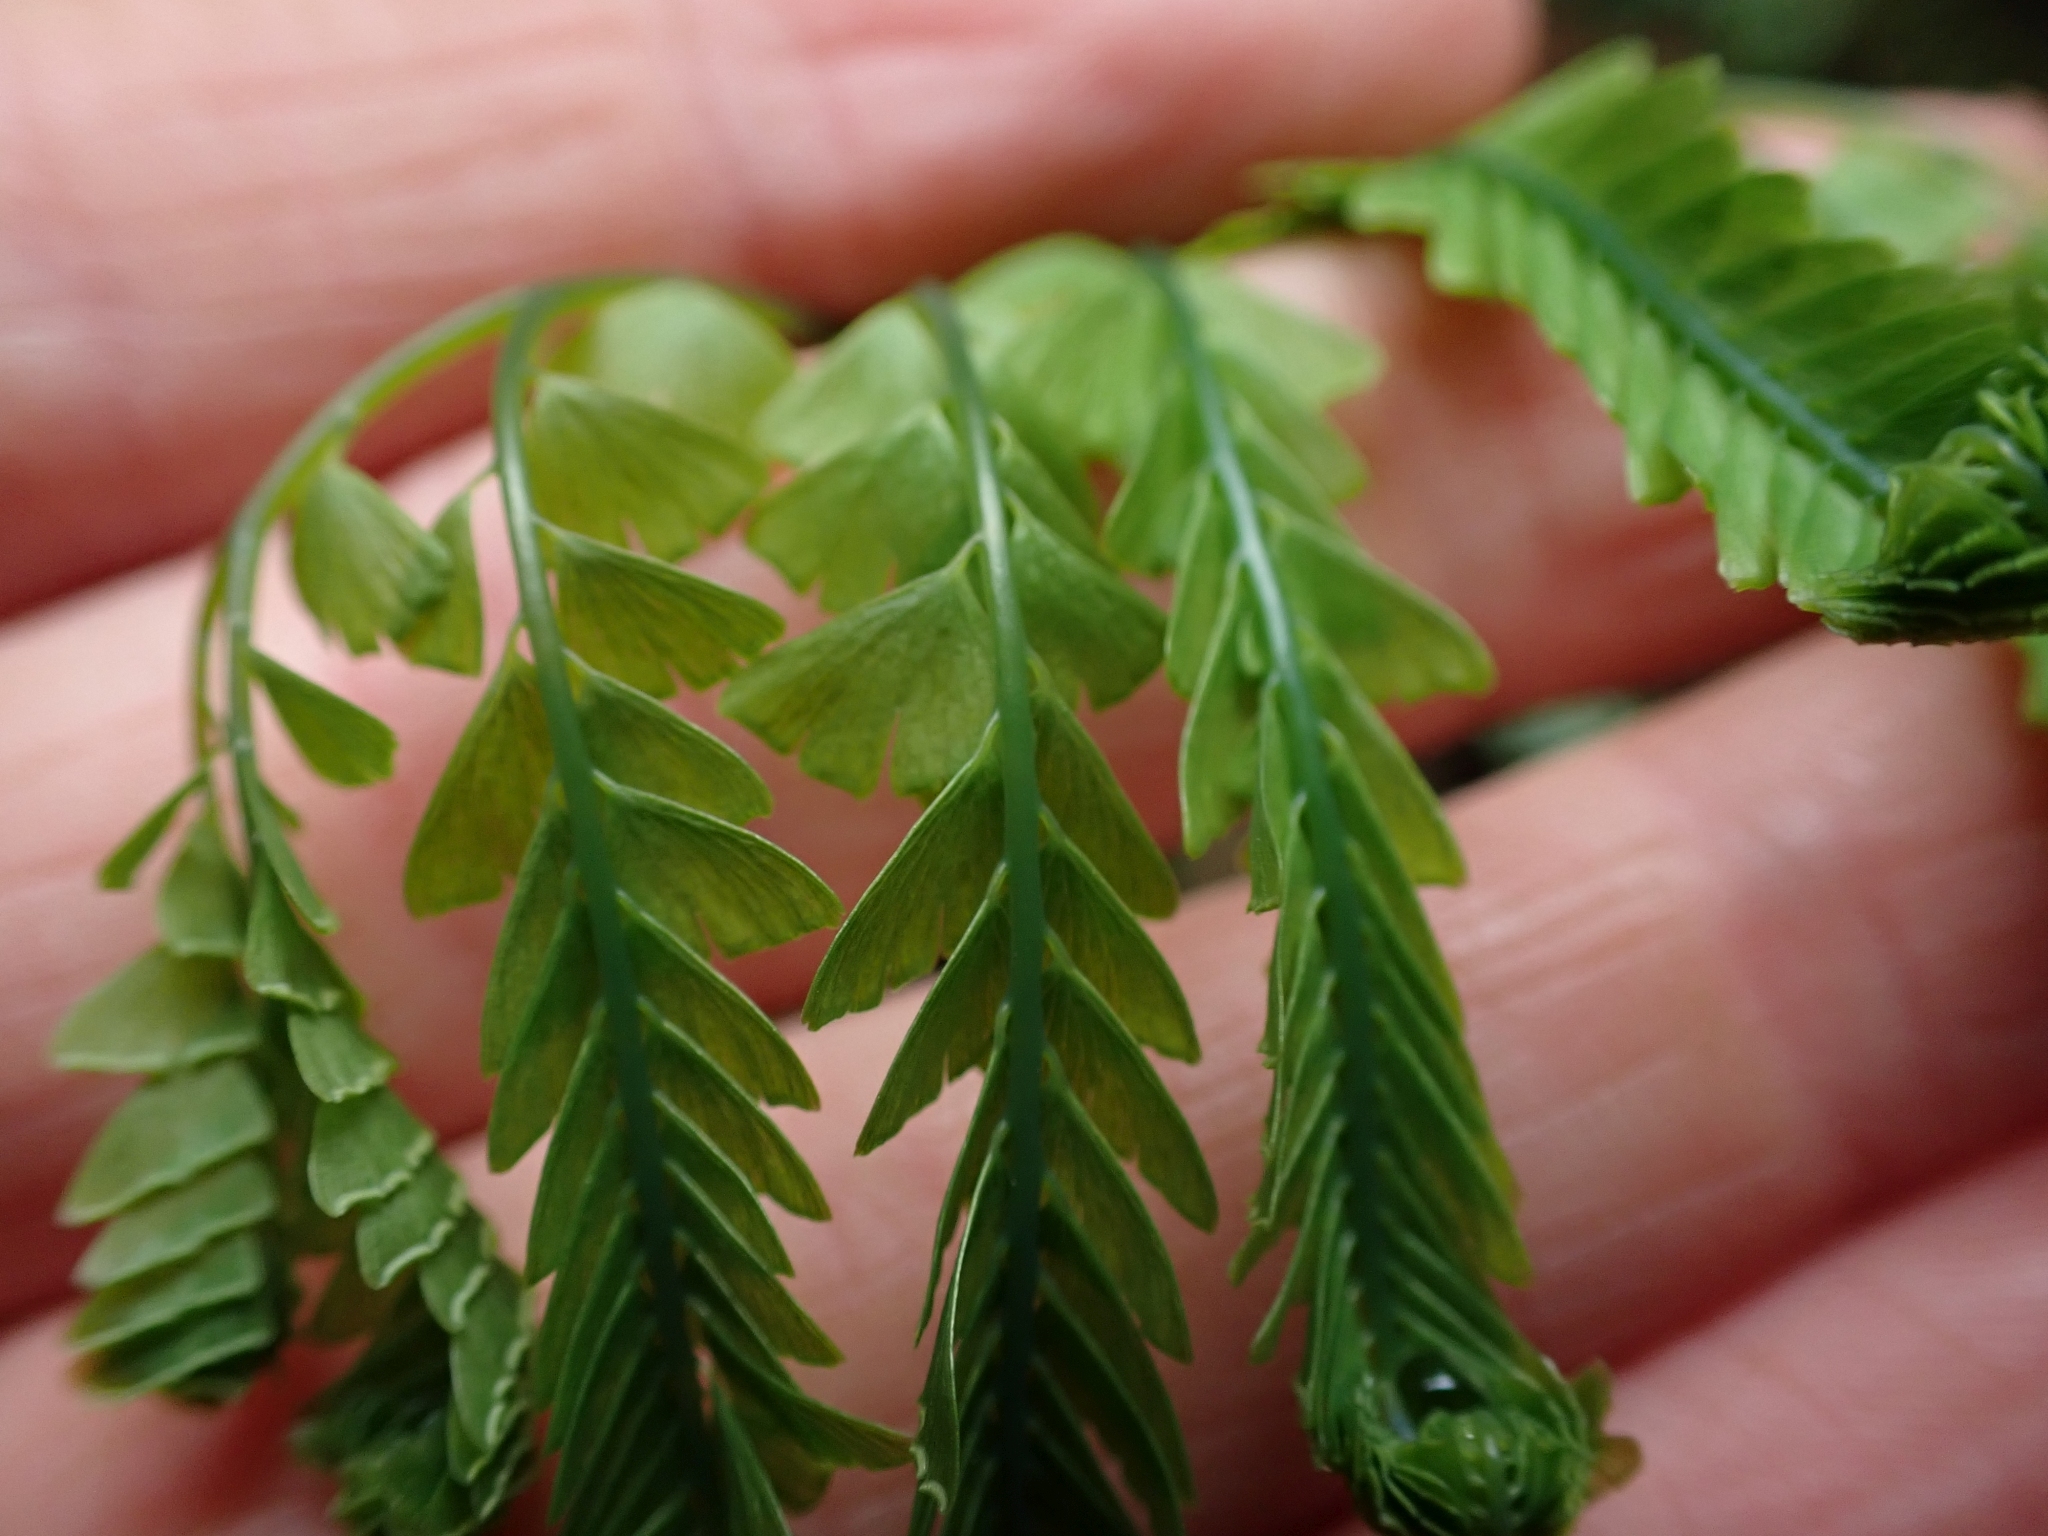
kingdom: Plantae
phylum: Tracheophyta
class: Polypodiopsida
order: Polypodiales
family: Pteridaceae
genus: Adiantum
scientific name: Adiantum aleuticum
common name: Aleutian maidenhair fern
